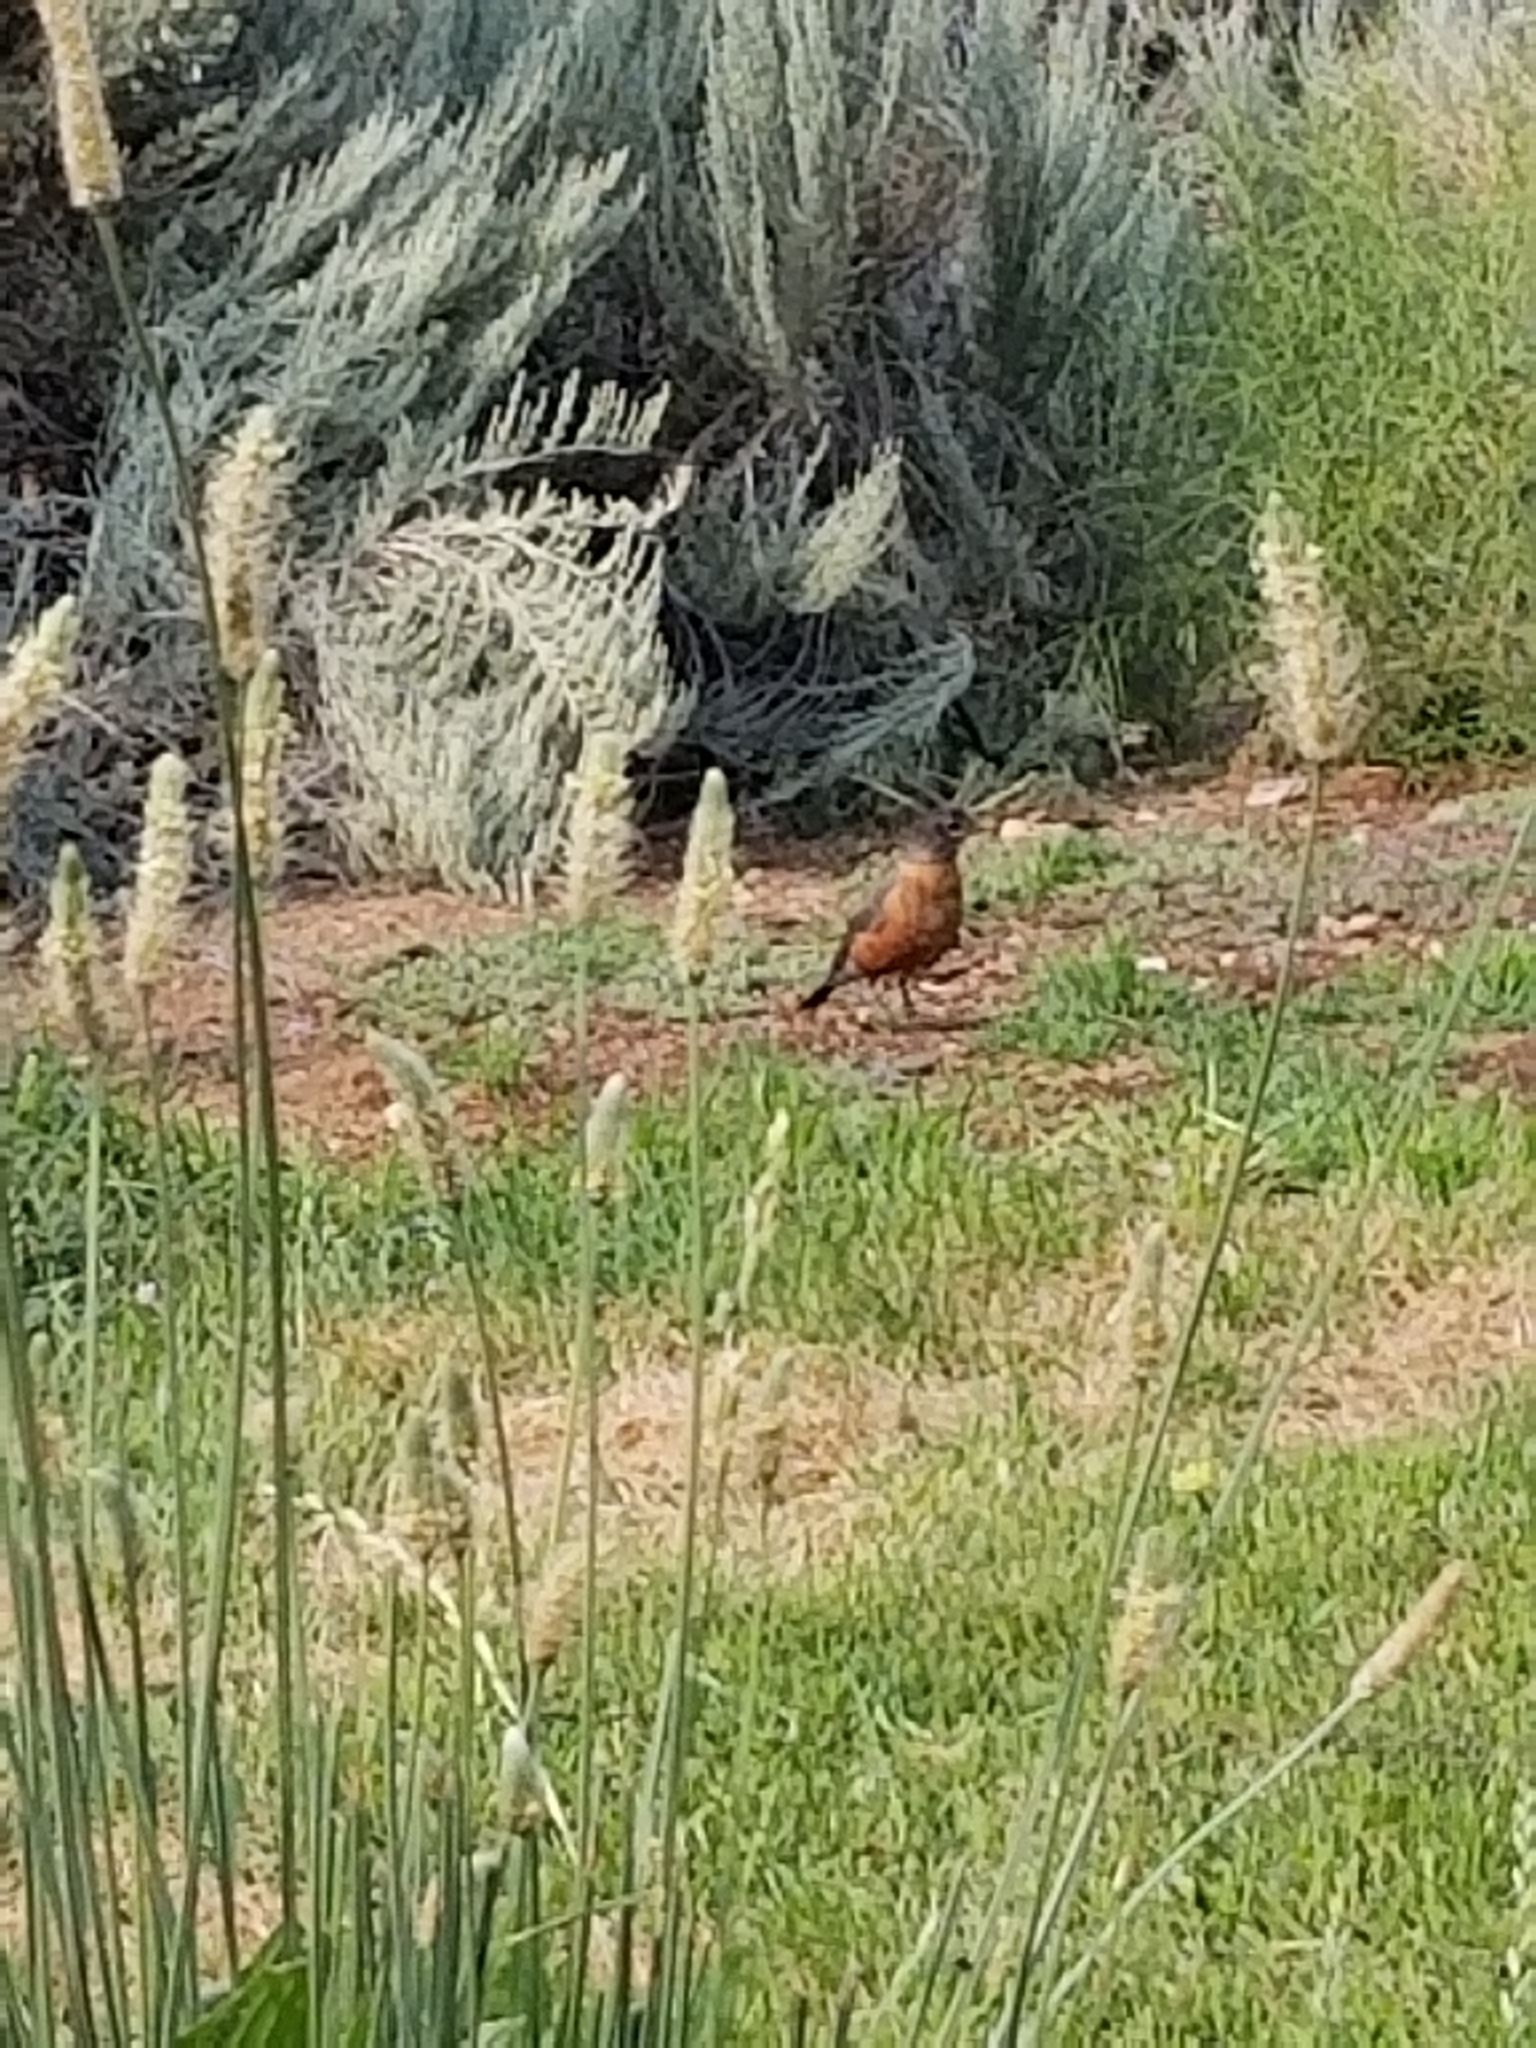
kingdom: Animalia
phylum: Chordata
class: Aves
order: Passeriformes
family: Turdidae
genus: Turdus
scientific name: Turdus migratorius
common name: American robin
